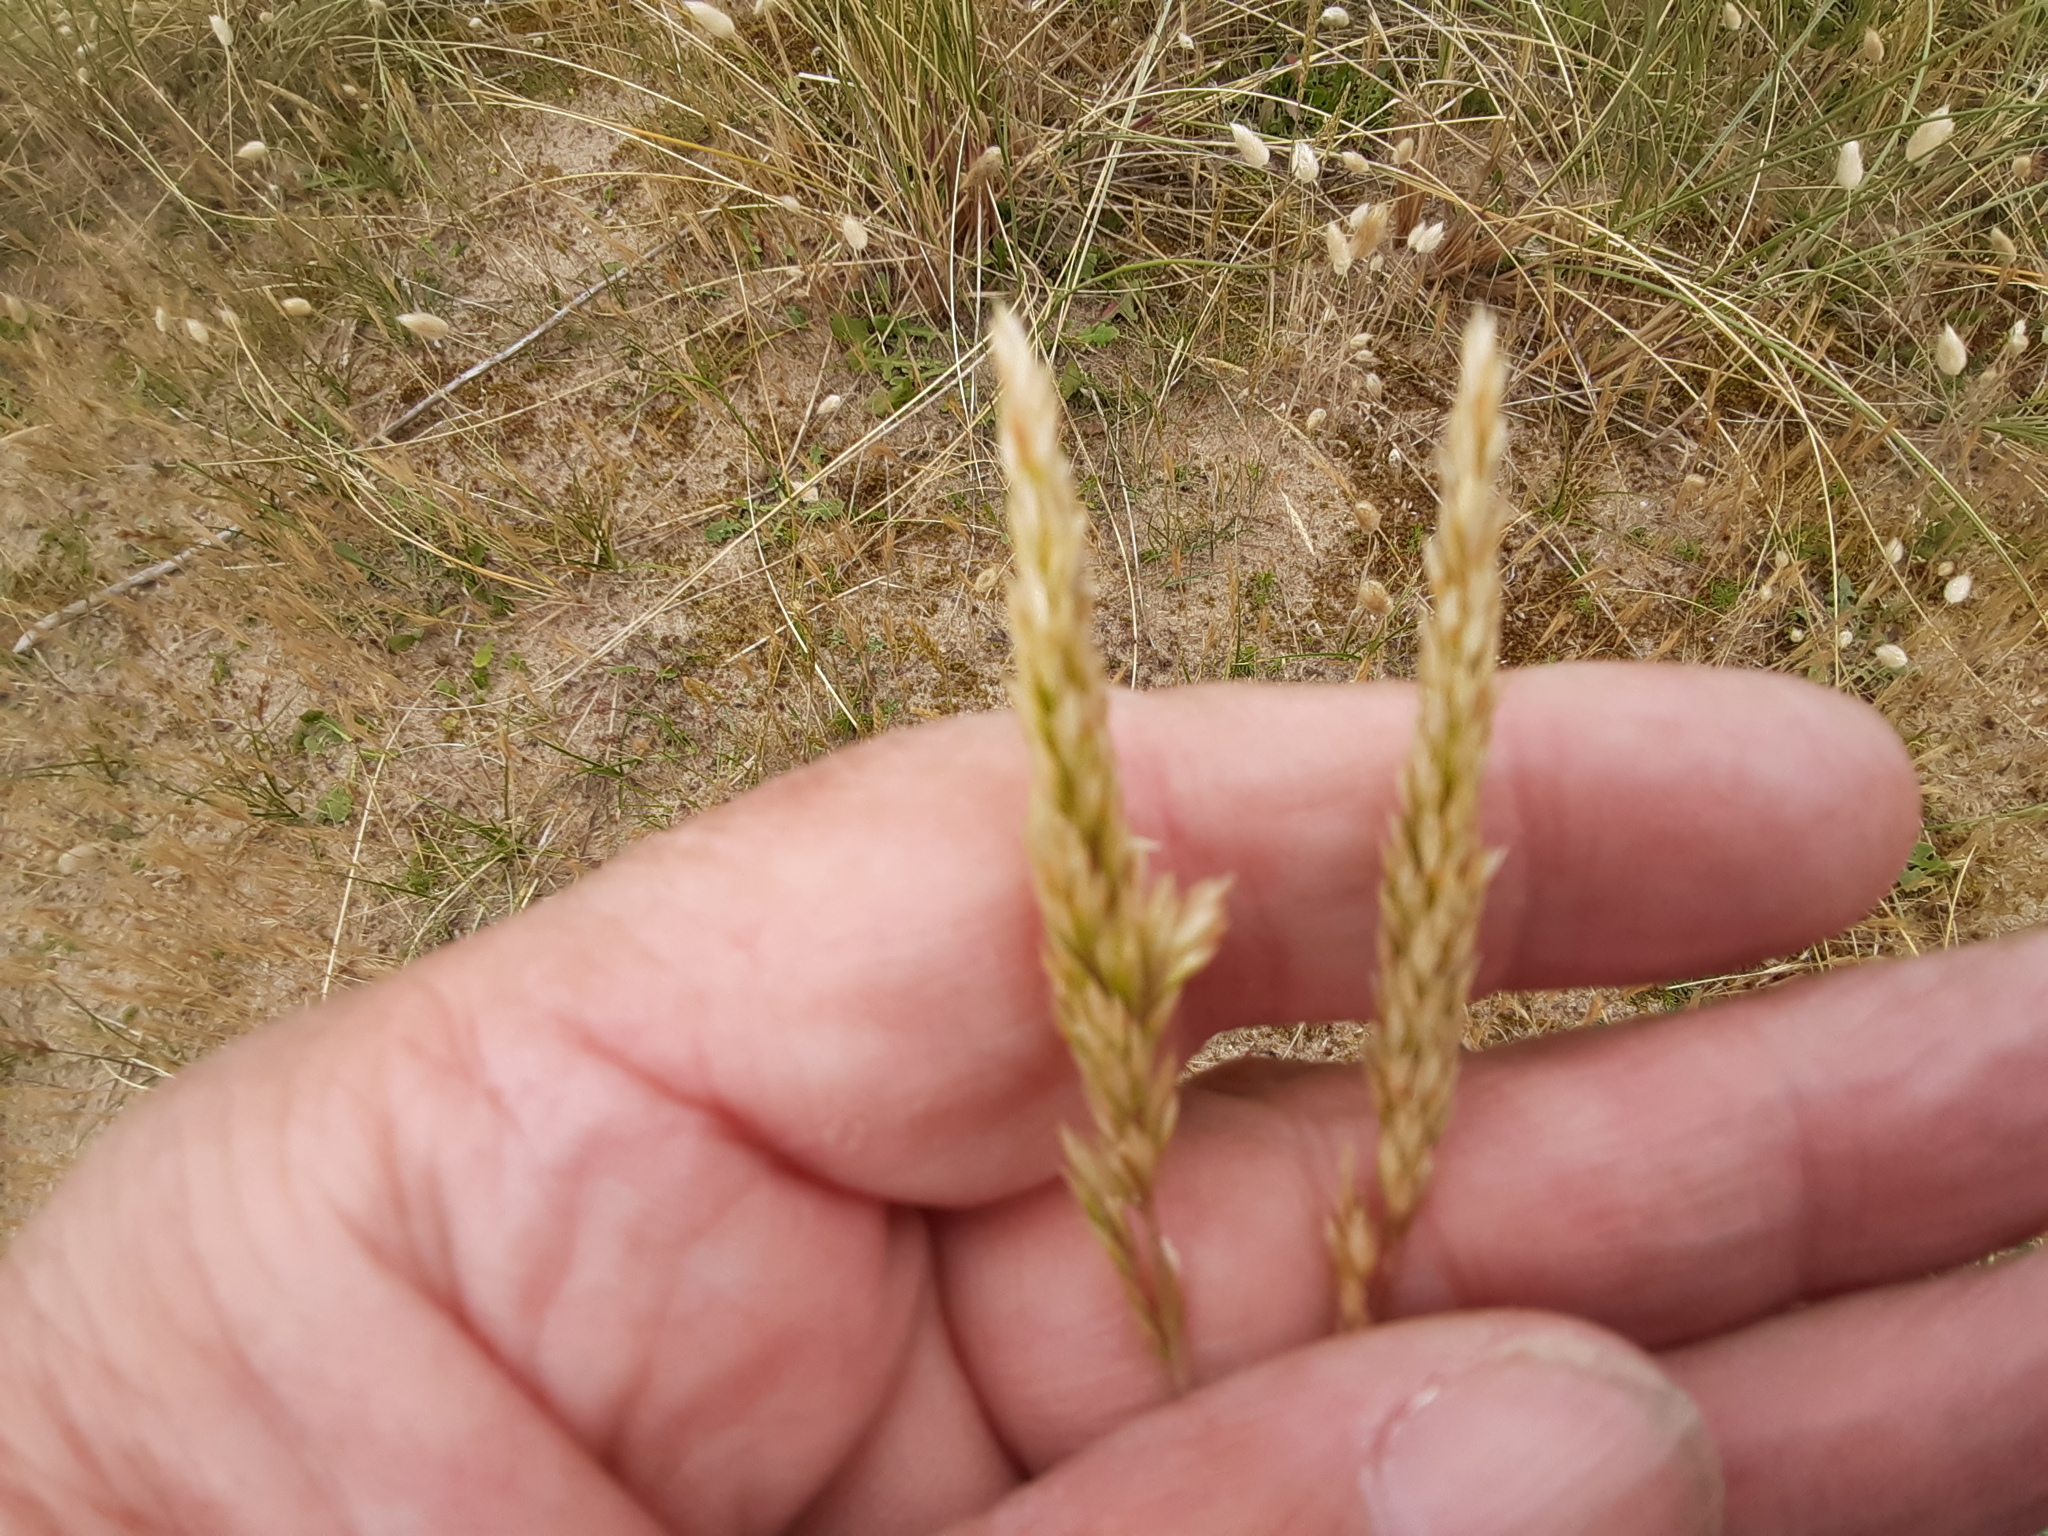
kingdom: Plantae
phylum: Tracheophyta
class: Liliopsida
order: Poales
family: Poaceae
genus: Koeleria
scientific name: Koeleria macrantha
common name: Crested hair-grass
